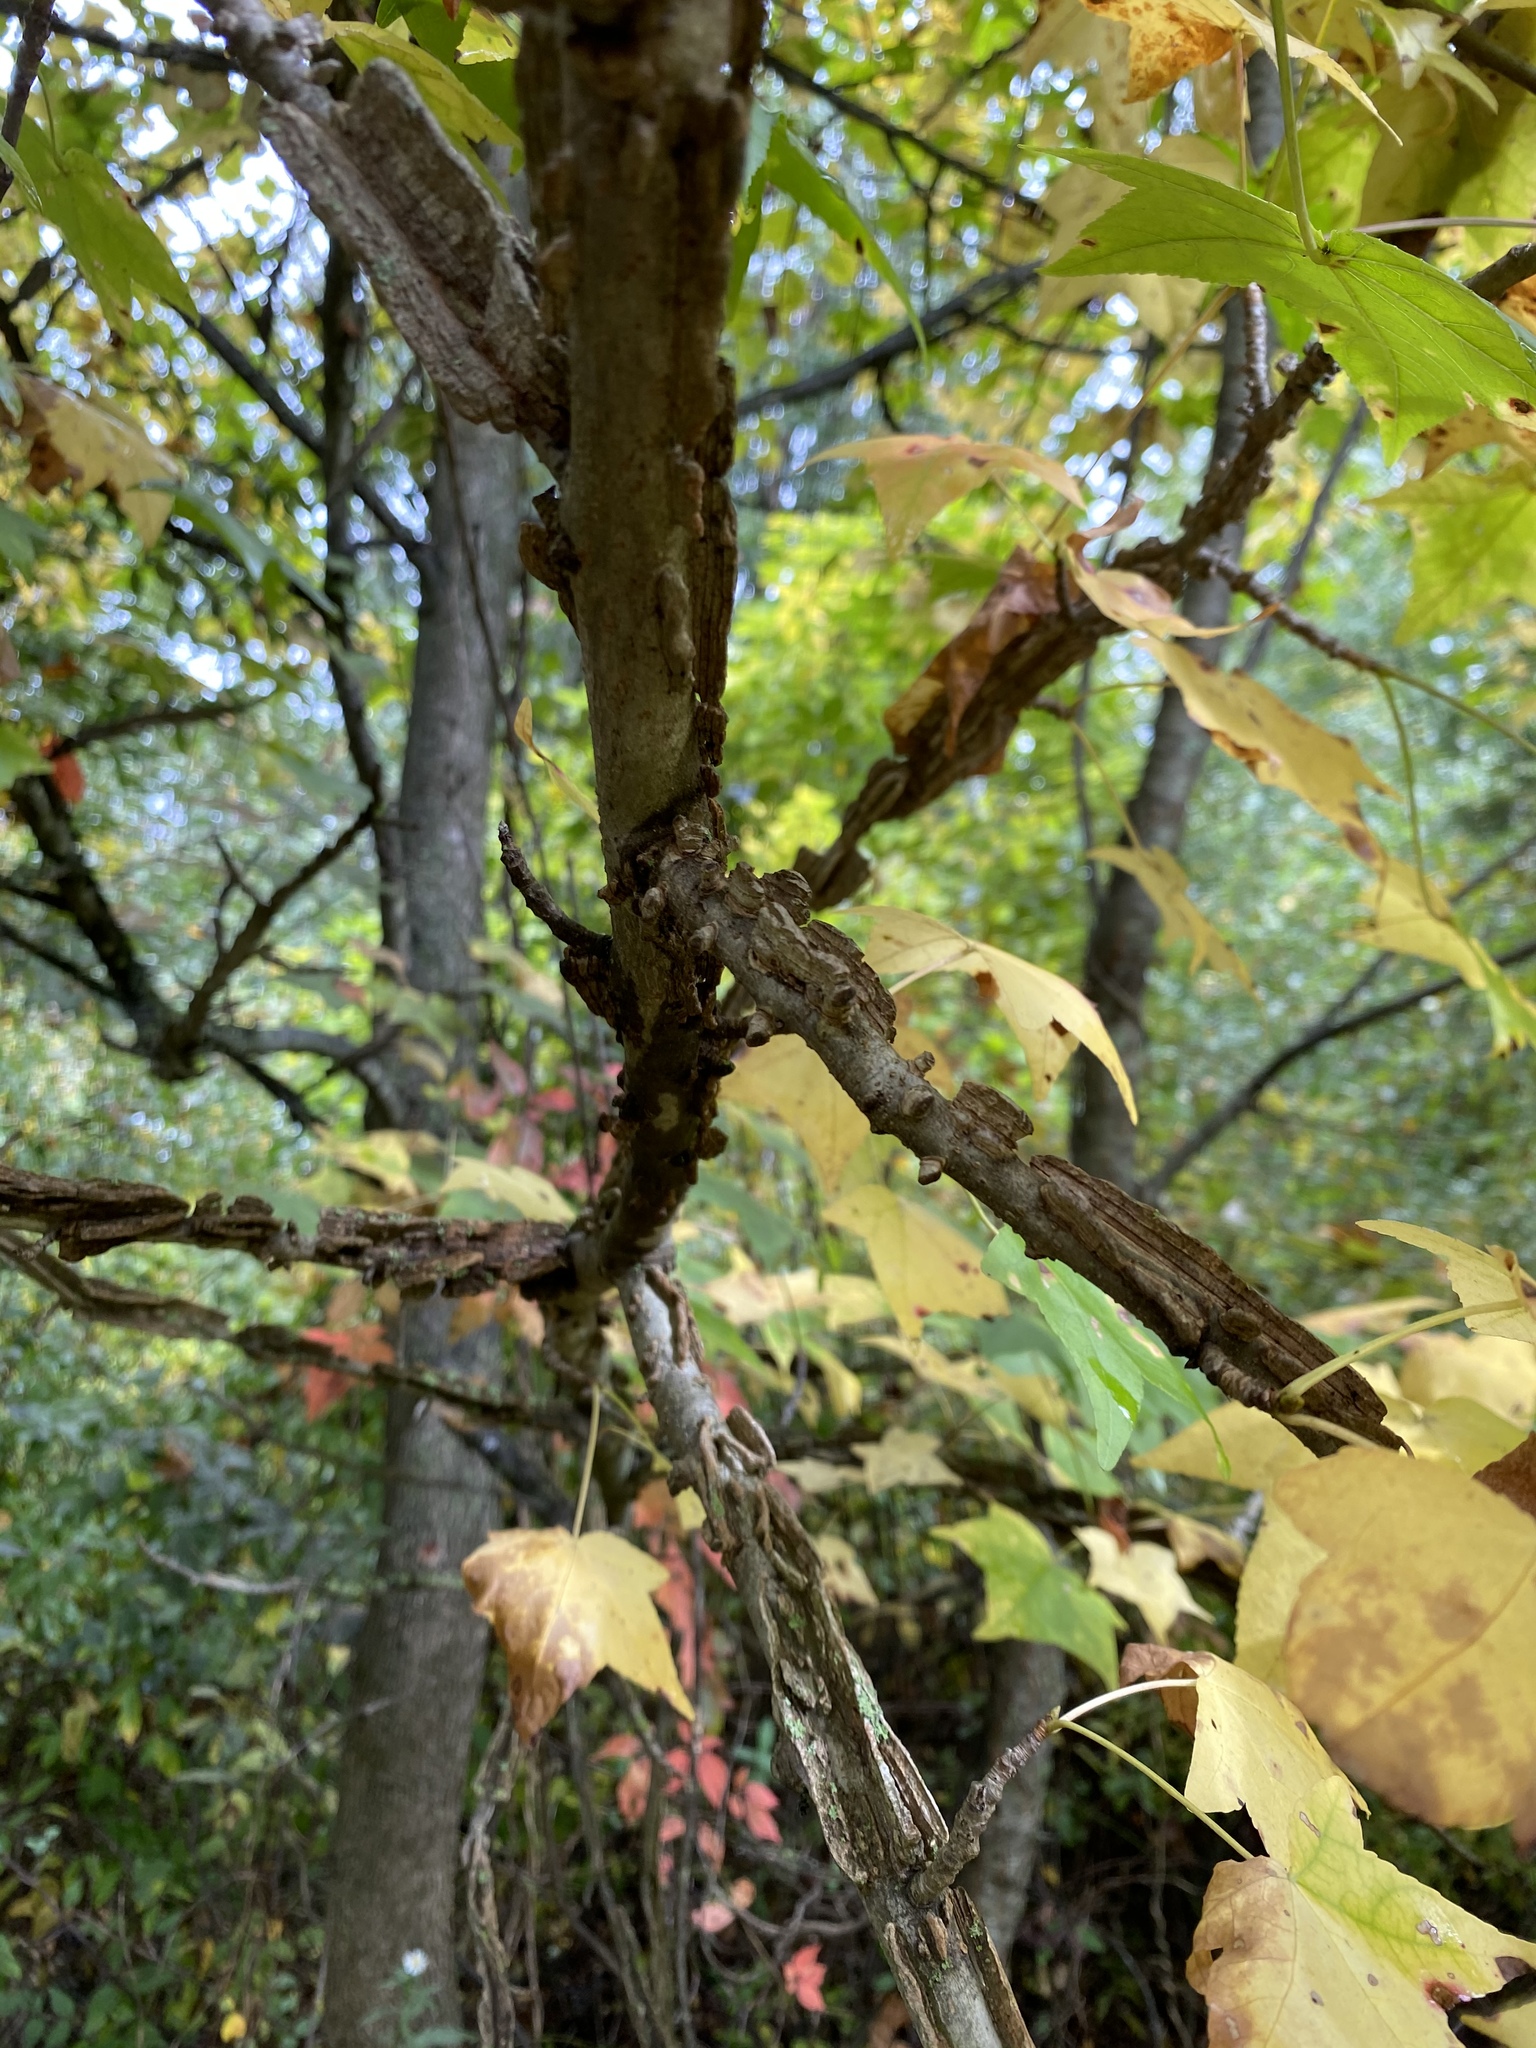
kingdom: Plantae
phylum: Tracheophyta
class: Magnoliopsida
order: Saxifragales
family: Altingiaceae
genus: Liquidambar
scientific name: Liquidambar styraciflua
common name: Sweet gum
